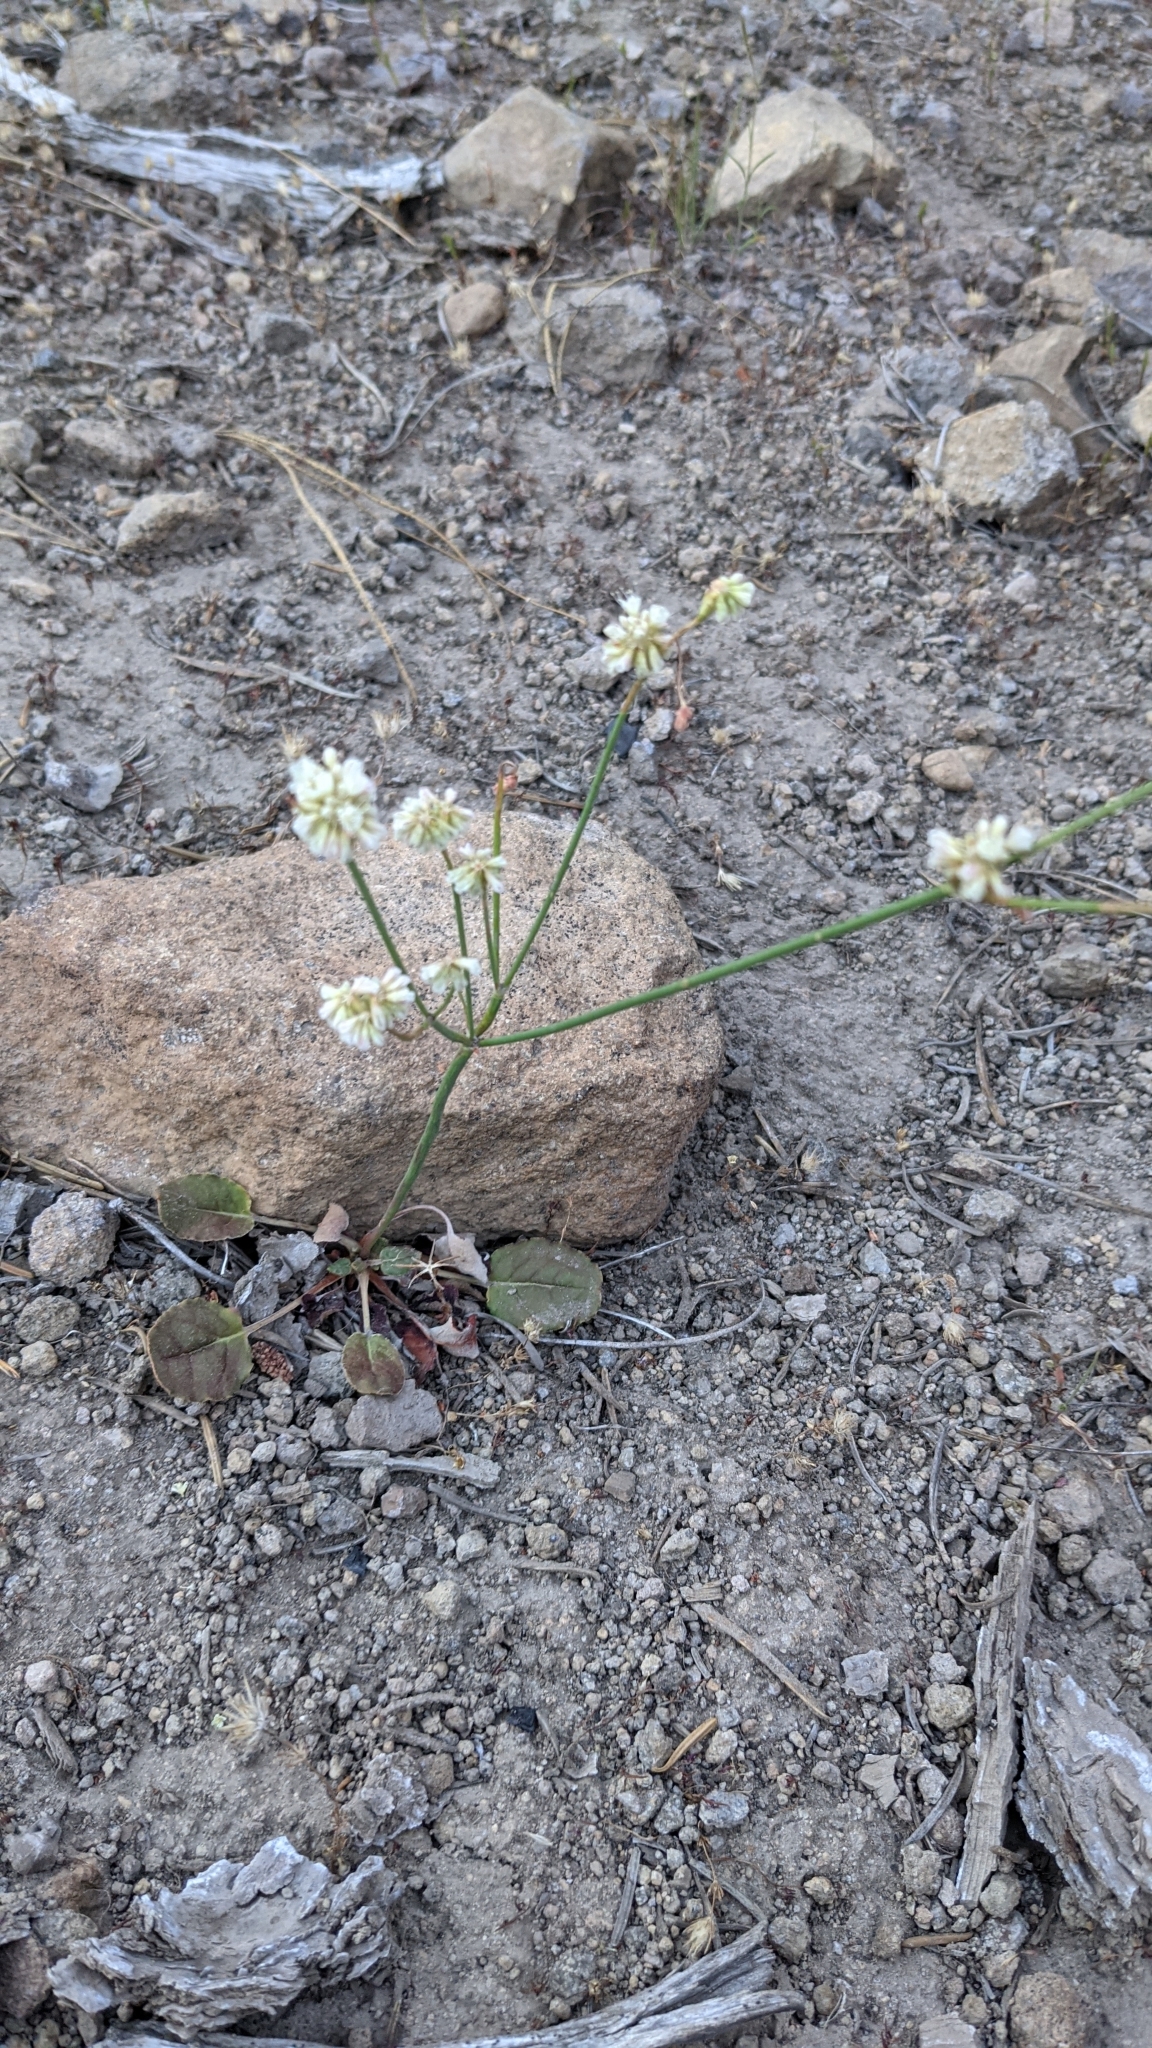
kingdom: Plantae
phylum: Tracheophyta
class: Magnoliopsida
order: Caryophyllales
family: Polygonaceae
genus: Eriogonum
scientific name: Eriogonum nudum
